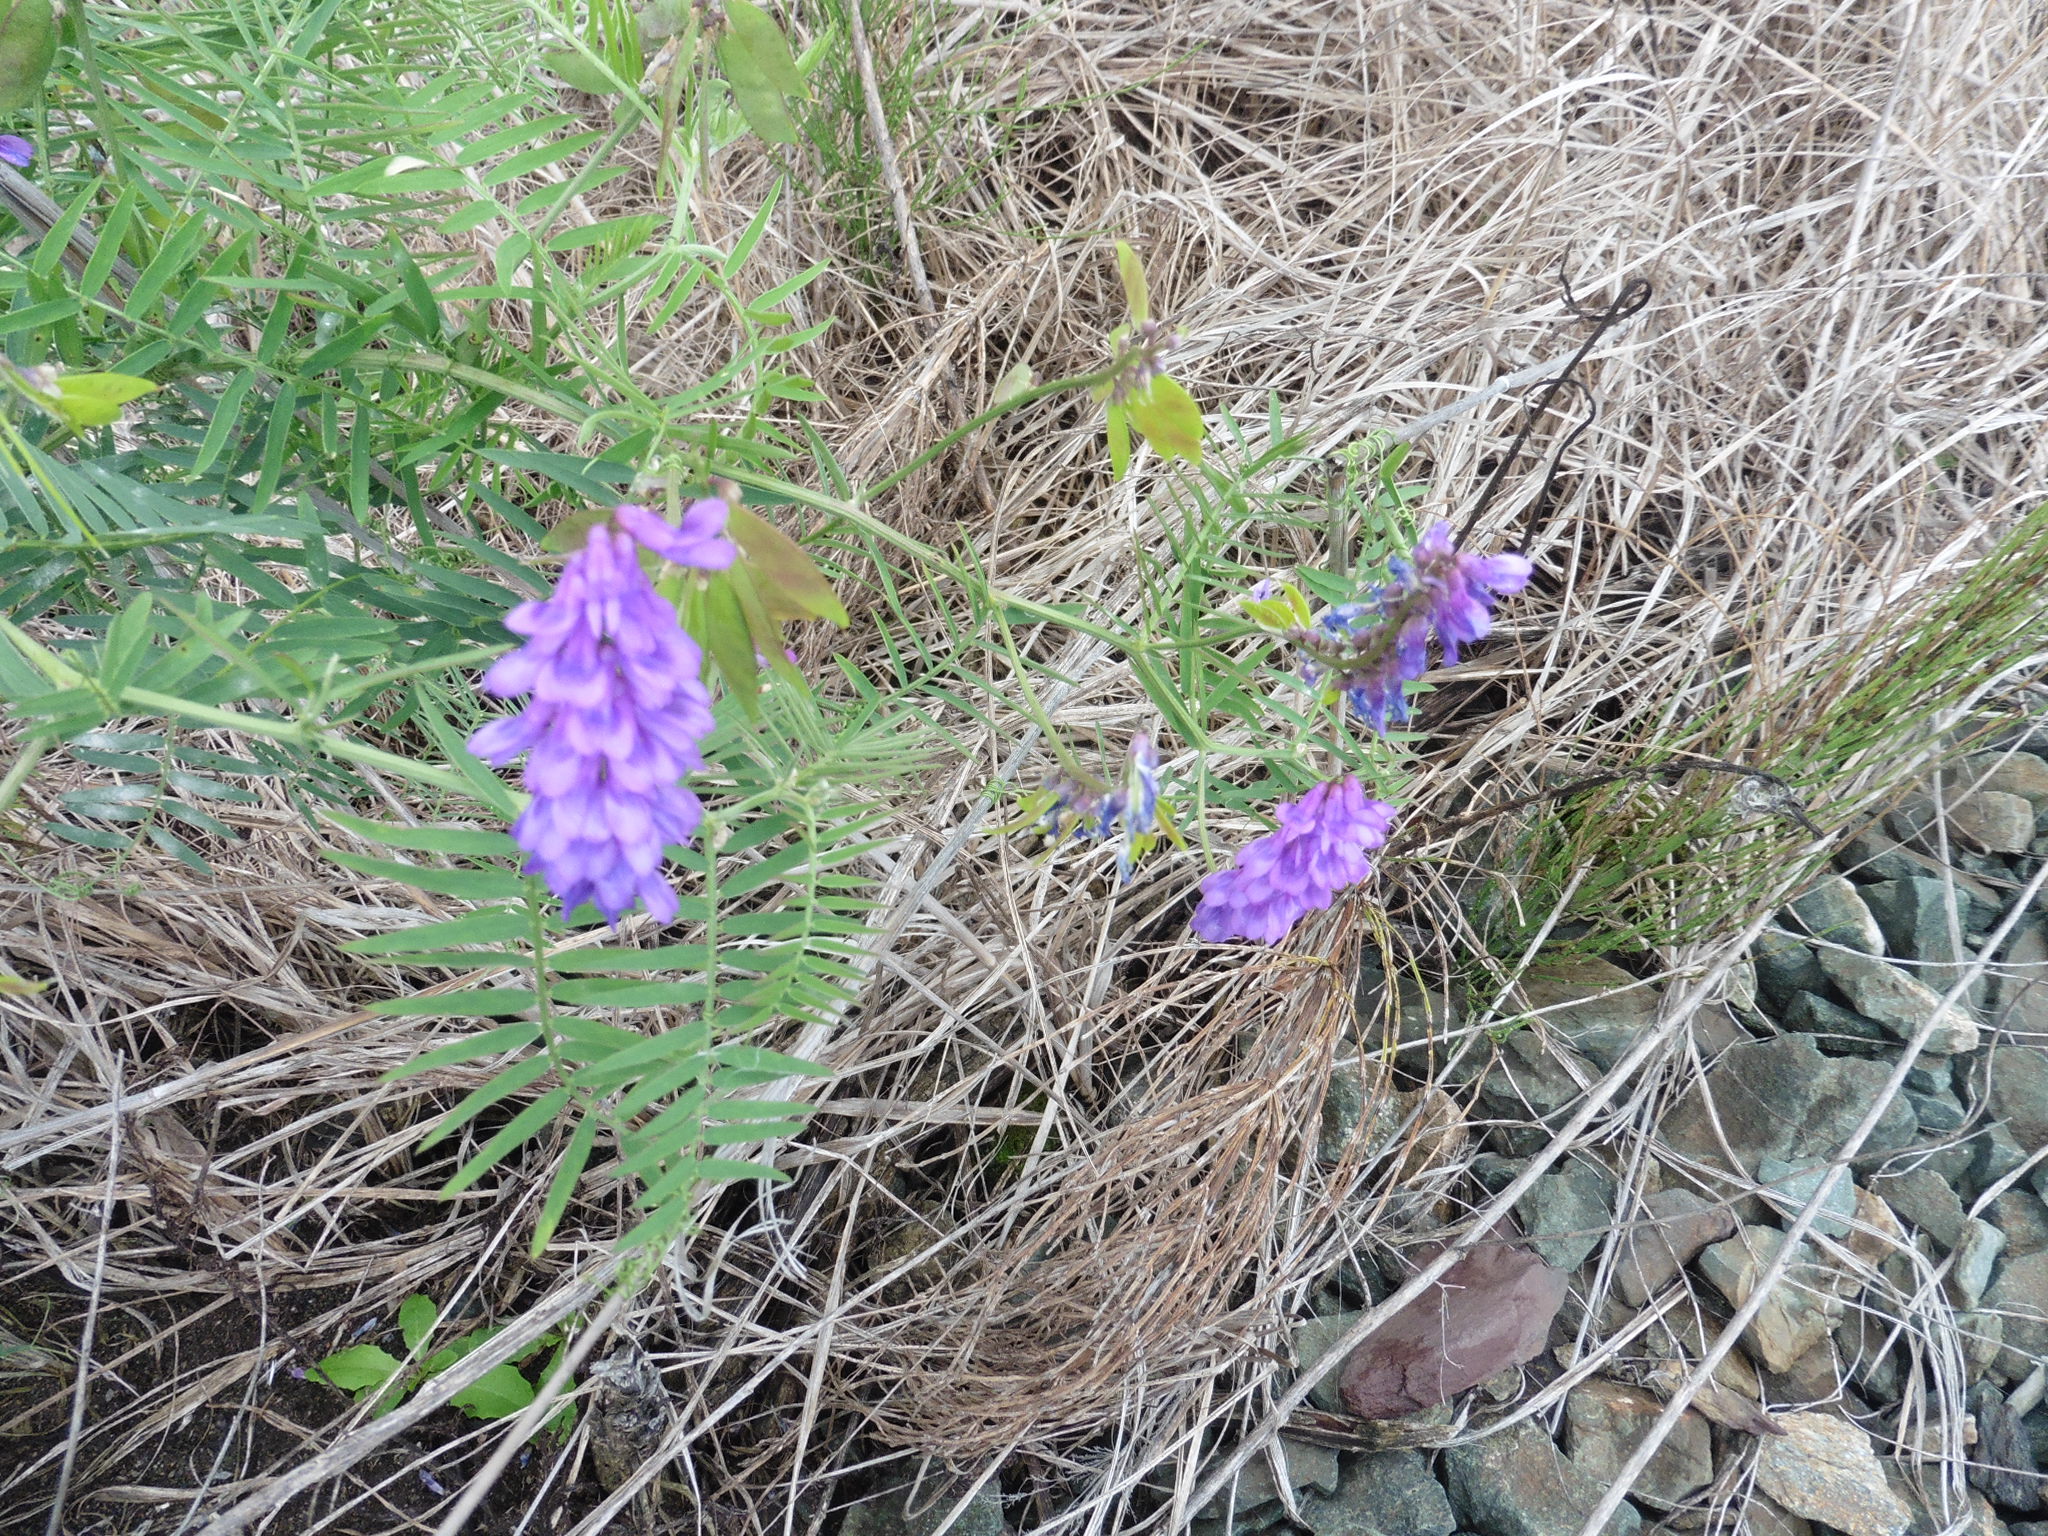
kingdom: Plantae
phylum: Tracheophyta
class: Magnoliopsida
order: Fabales
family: Fabaceae
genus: Vicia
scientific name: Vicia cracca
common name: Bird vetch
